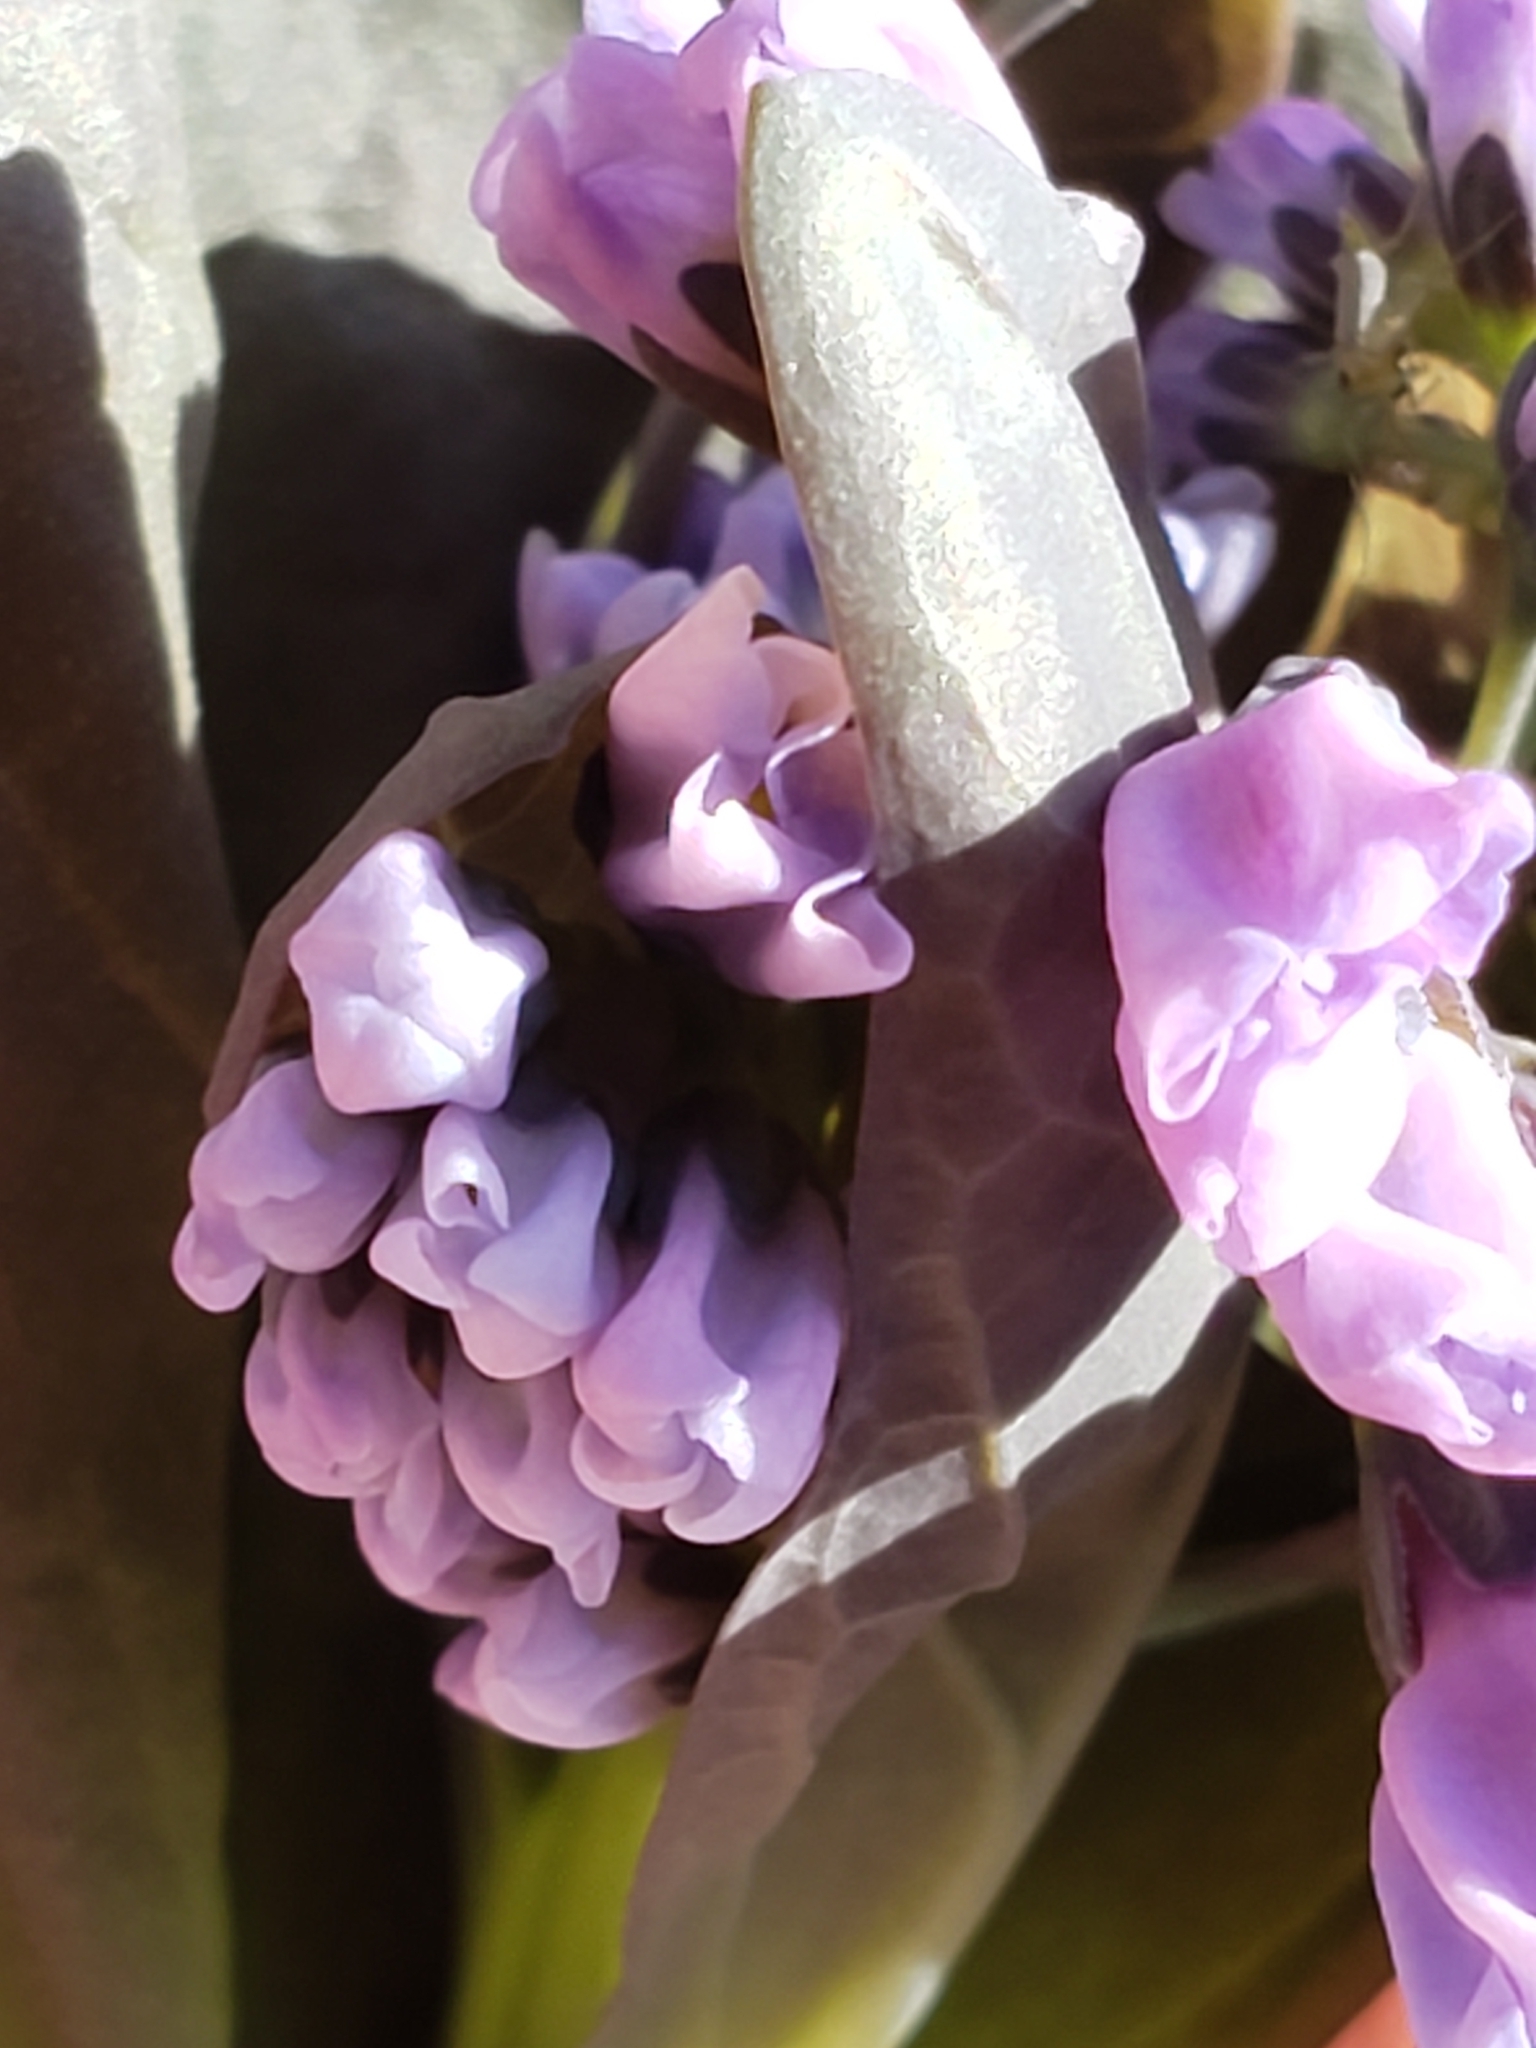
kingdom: Plantae
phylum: Tracheophyta
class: Magnoliopsida
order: Boraginales
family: Boraginaceae
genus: Mertensia
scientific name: Mertensia virginica
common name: Virginia bluebells
